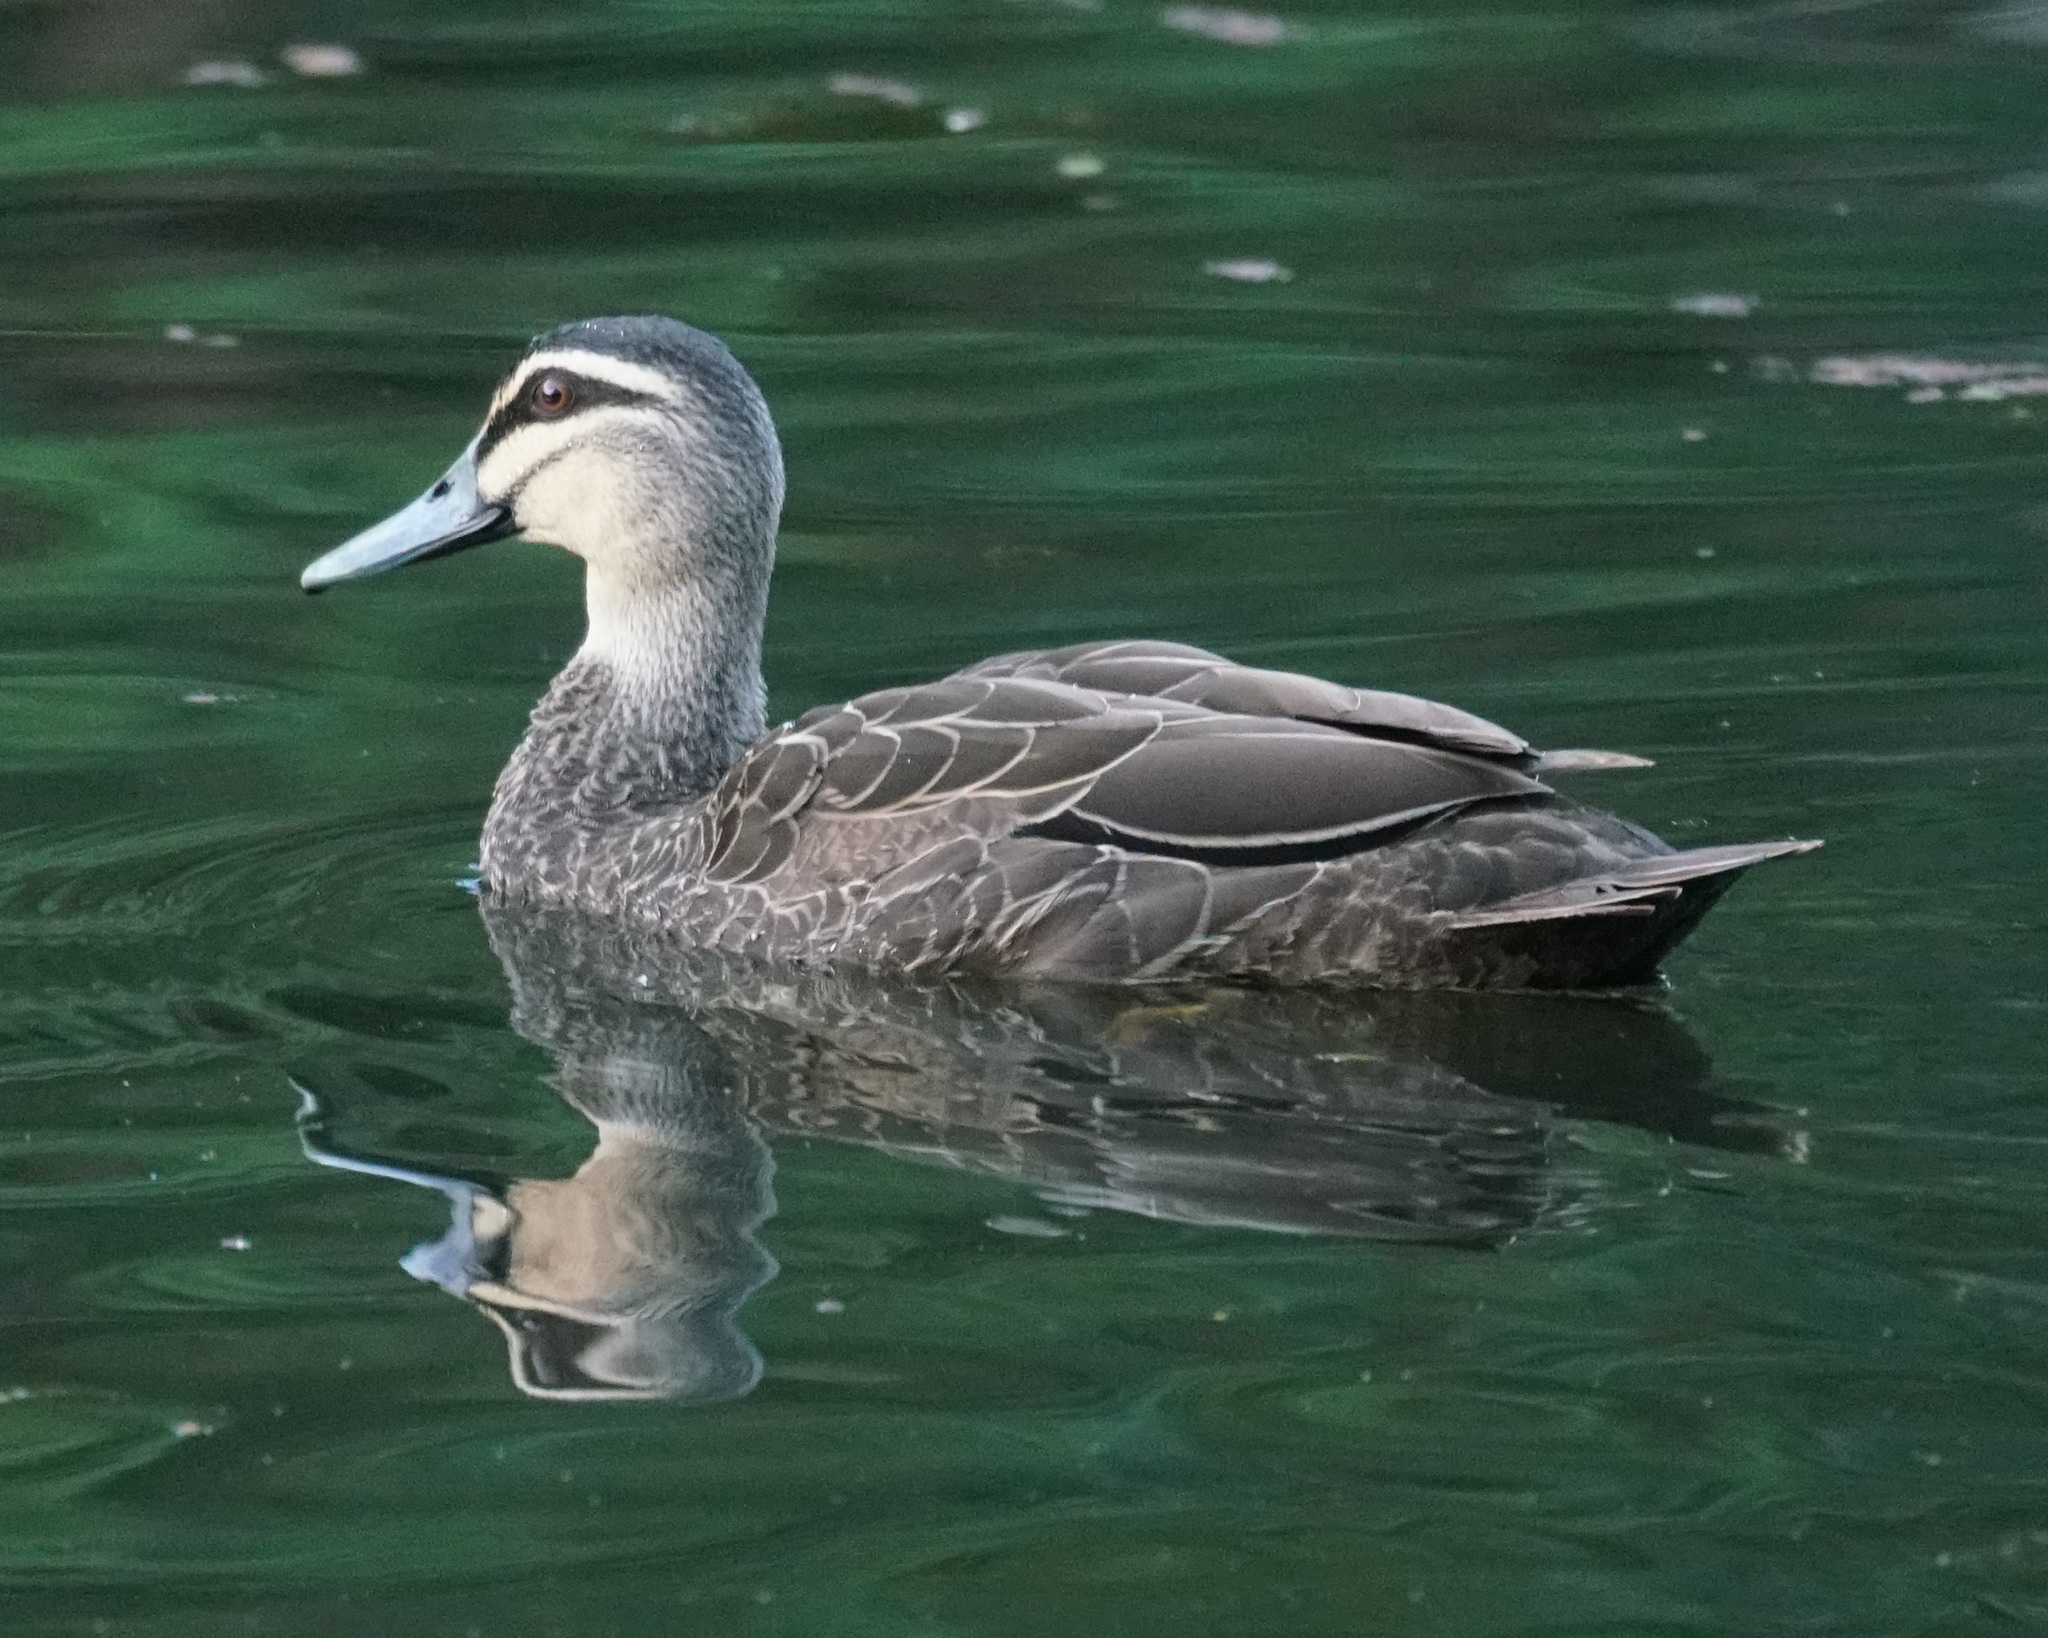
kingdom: Animalia
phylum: Chordata
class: Aves
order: Anseriformes
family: Anatidae
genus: Anas
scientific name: Anas superciliosa
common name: Pacific black duck
